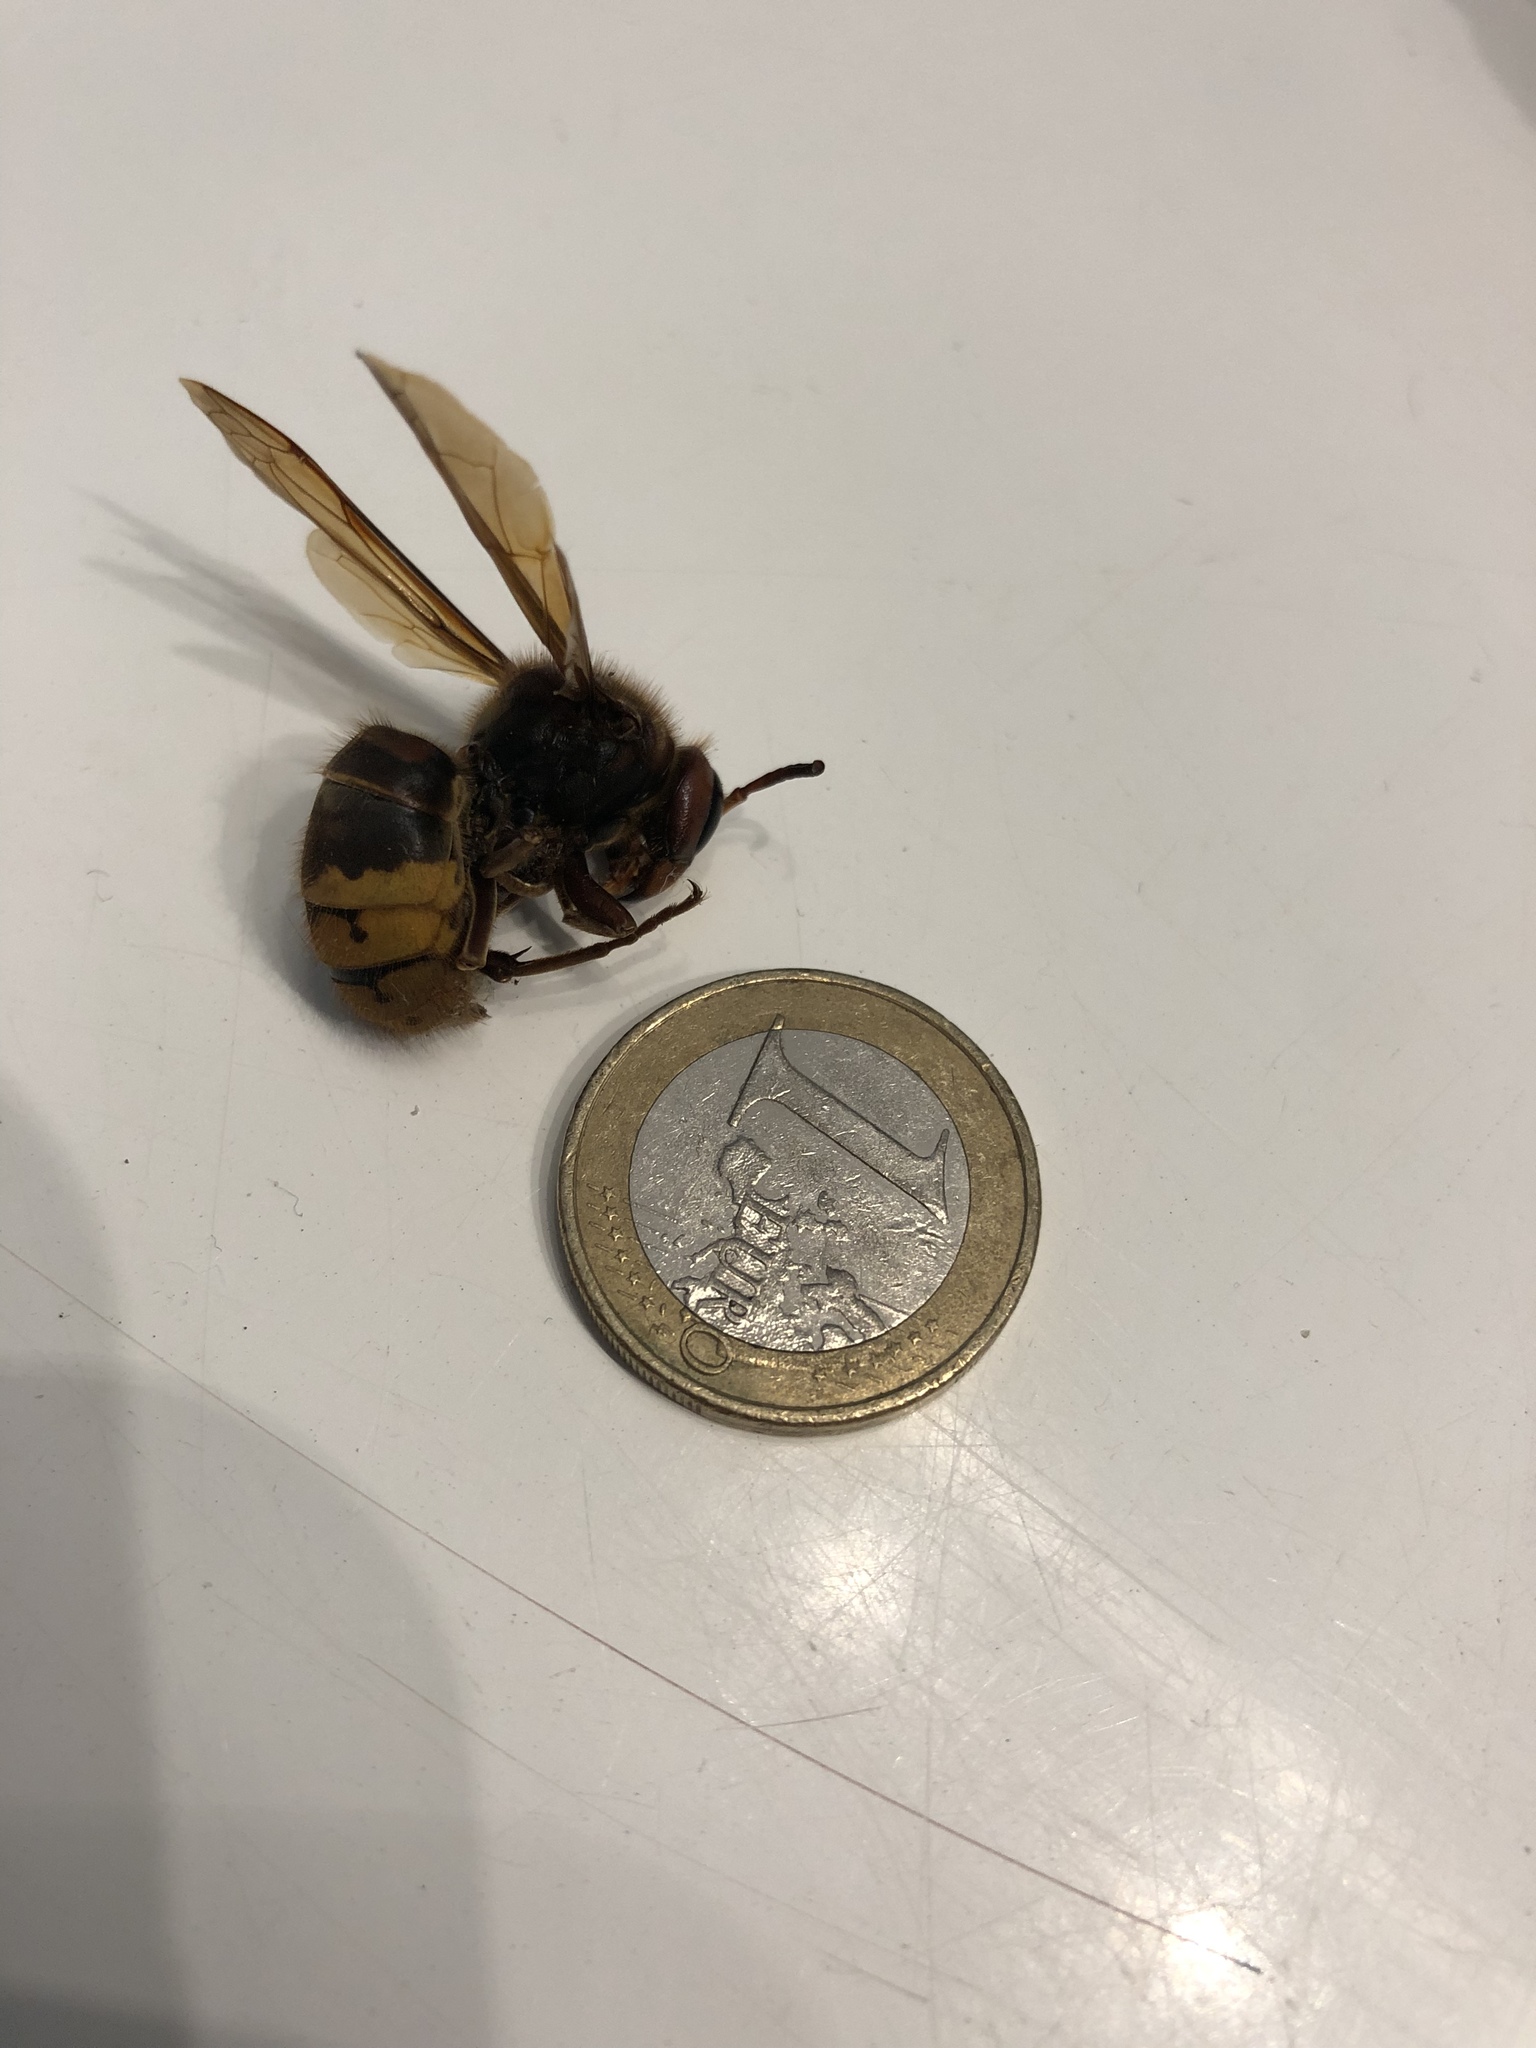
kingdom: Animalia
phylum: Arthropoda
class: Insecta
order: Hymenoptera
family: Vespidae
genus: Vespa
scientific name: Vespa crabro
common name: Hornet
